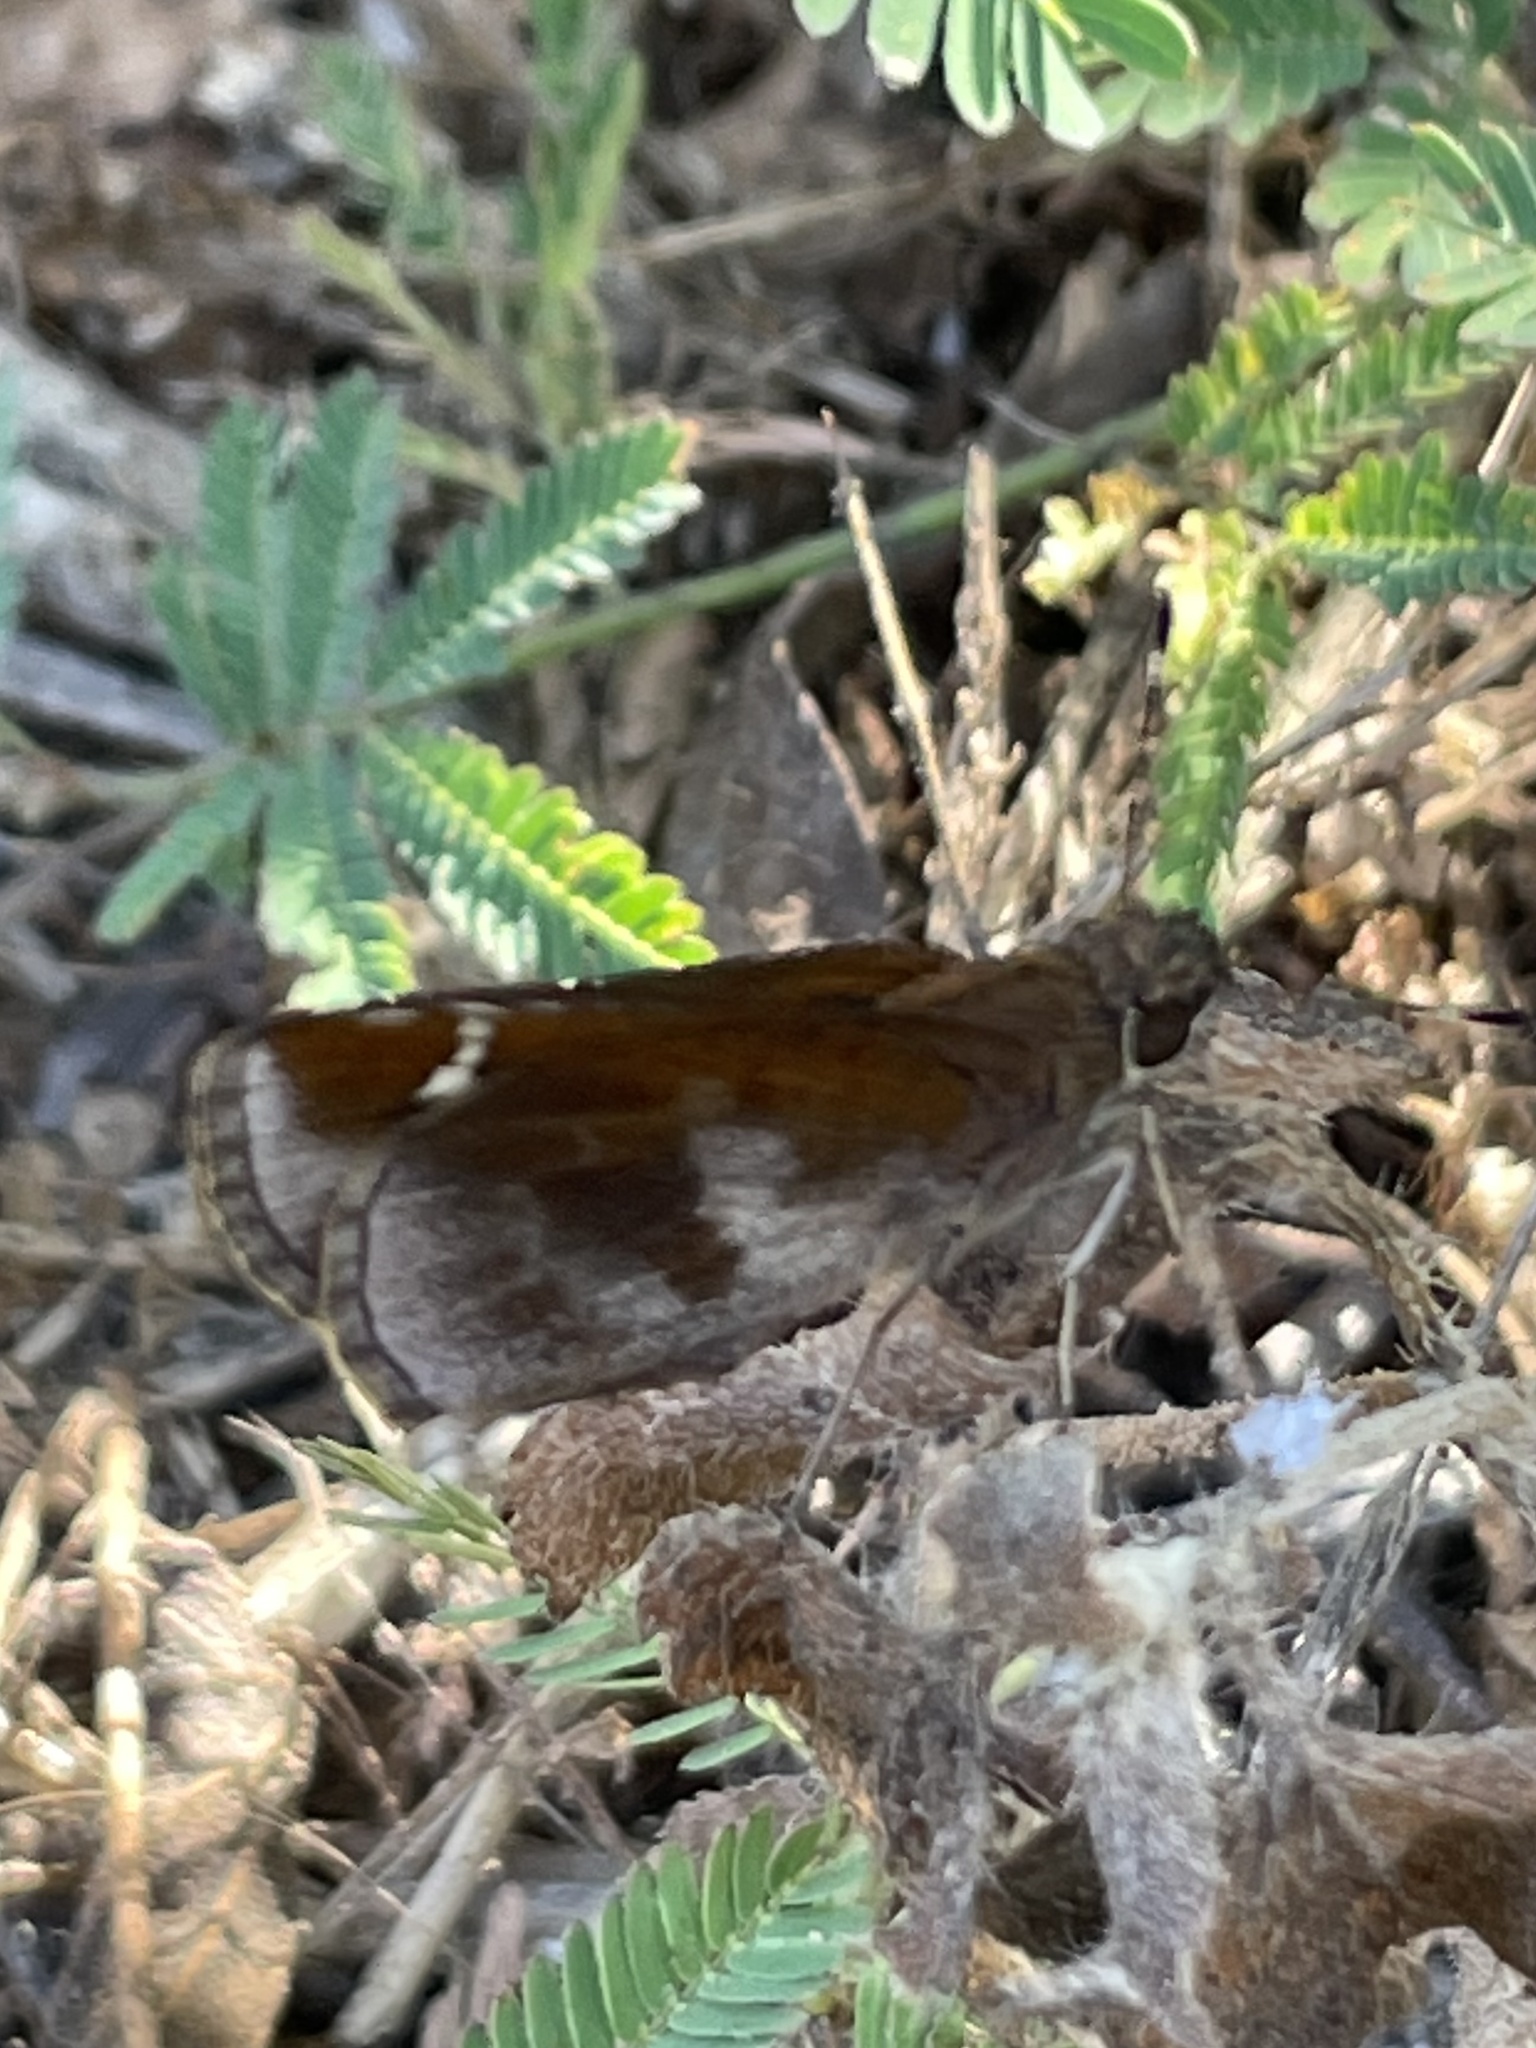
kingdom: Animalia
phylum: Arthropoda
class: Insecta
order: Lepidoptera
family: Hesperiidae
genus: Lerema
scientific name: Lerema accius
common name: Clouded skipper
